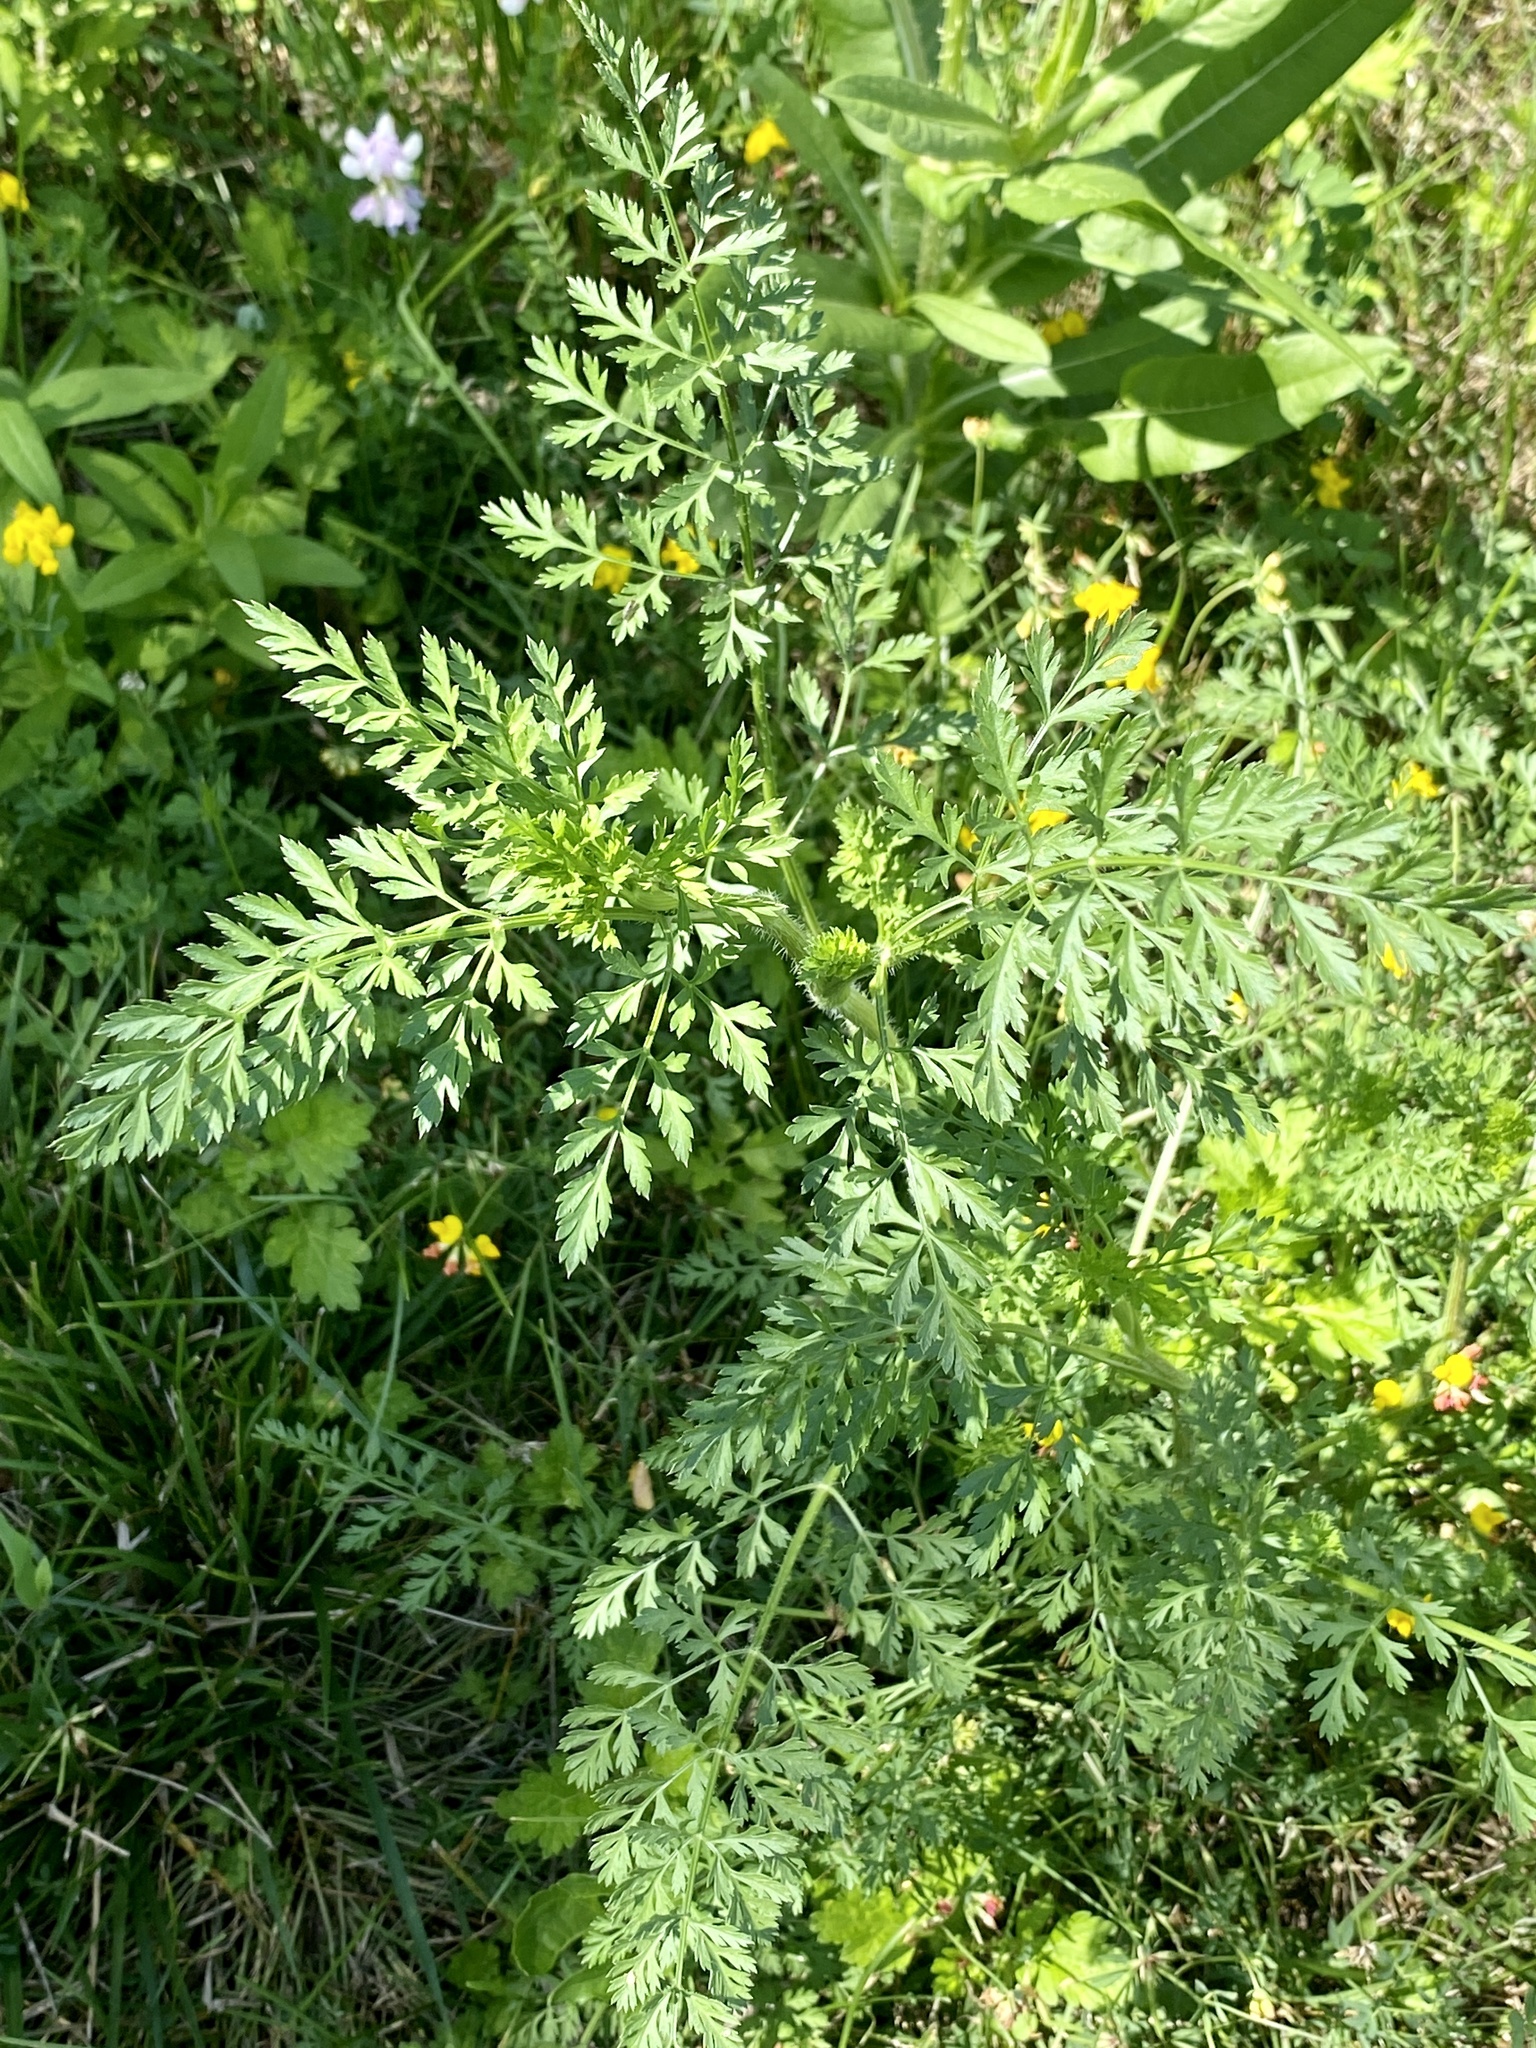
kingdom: Plantae
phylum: Tracheophyta
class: Magnoliopsida
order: Apiales
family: Apiaceae
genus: Daucus
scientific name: Daucus carota
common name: Wild carrot
